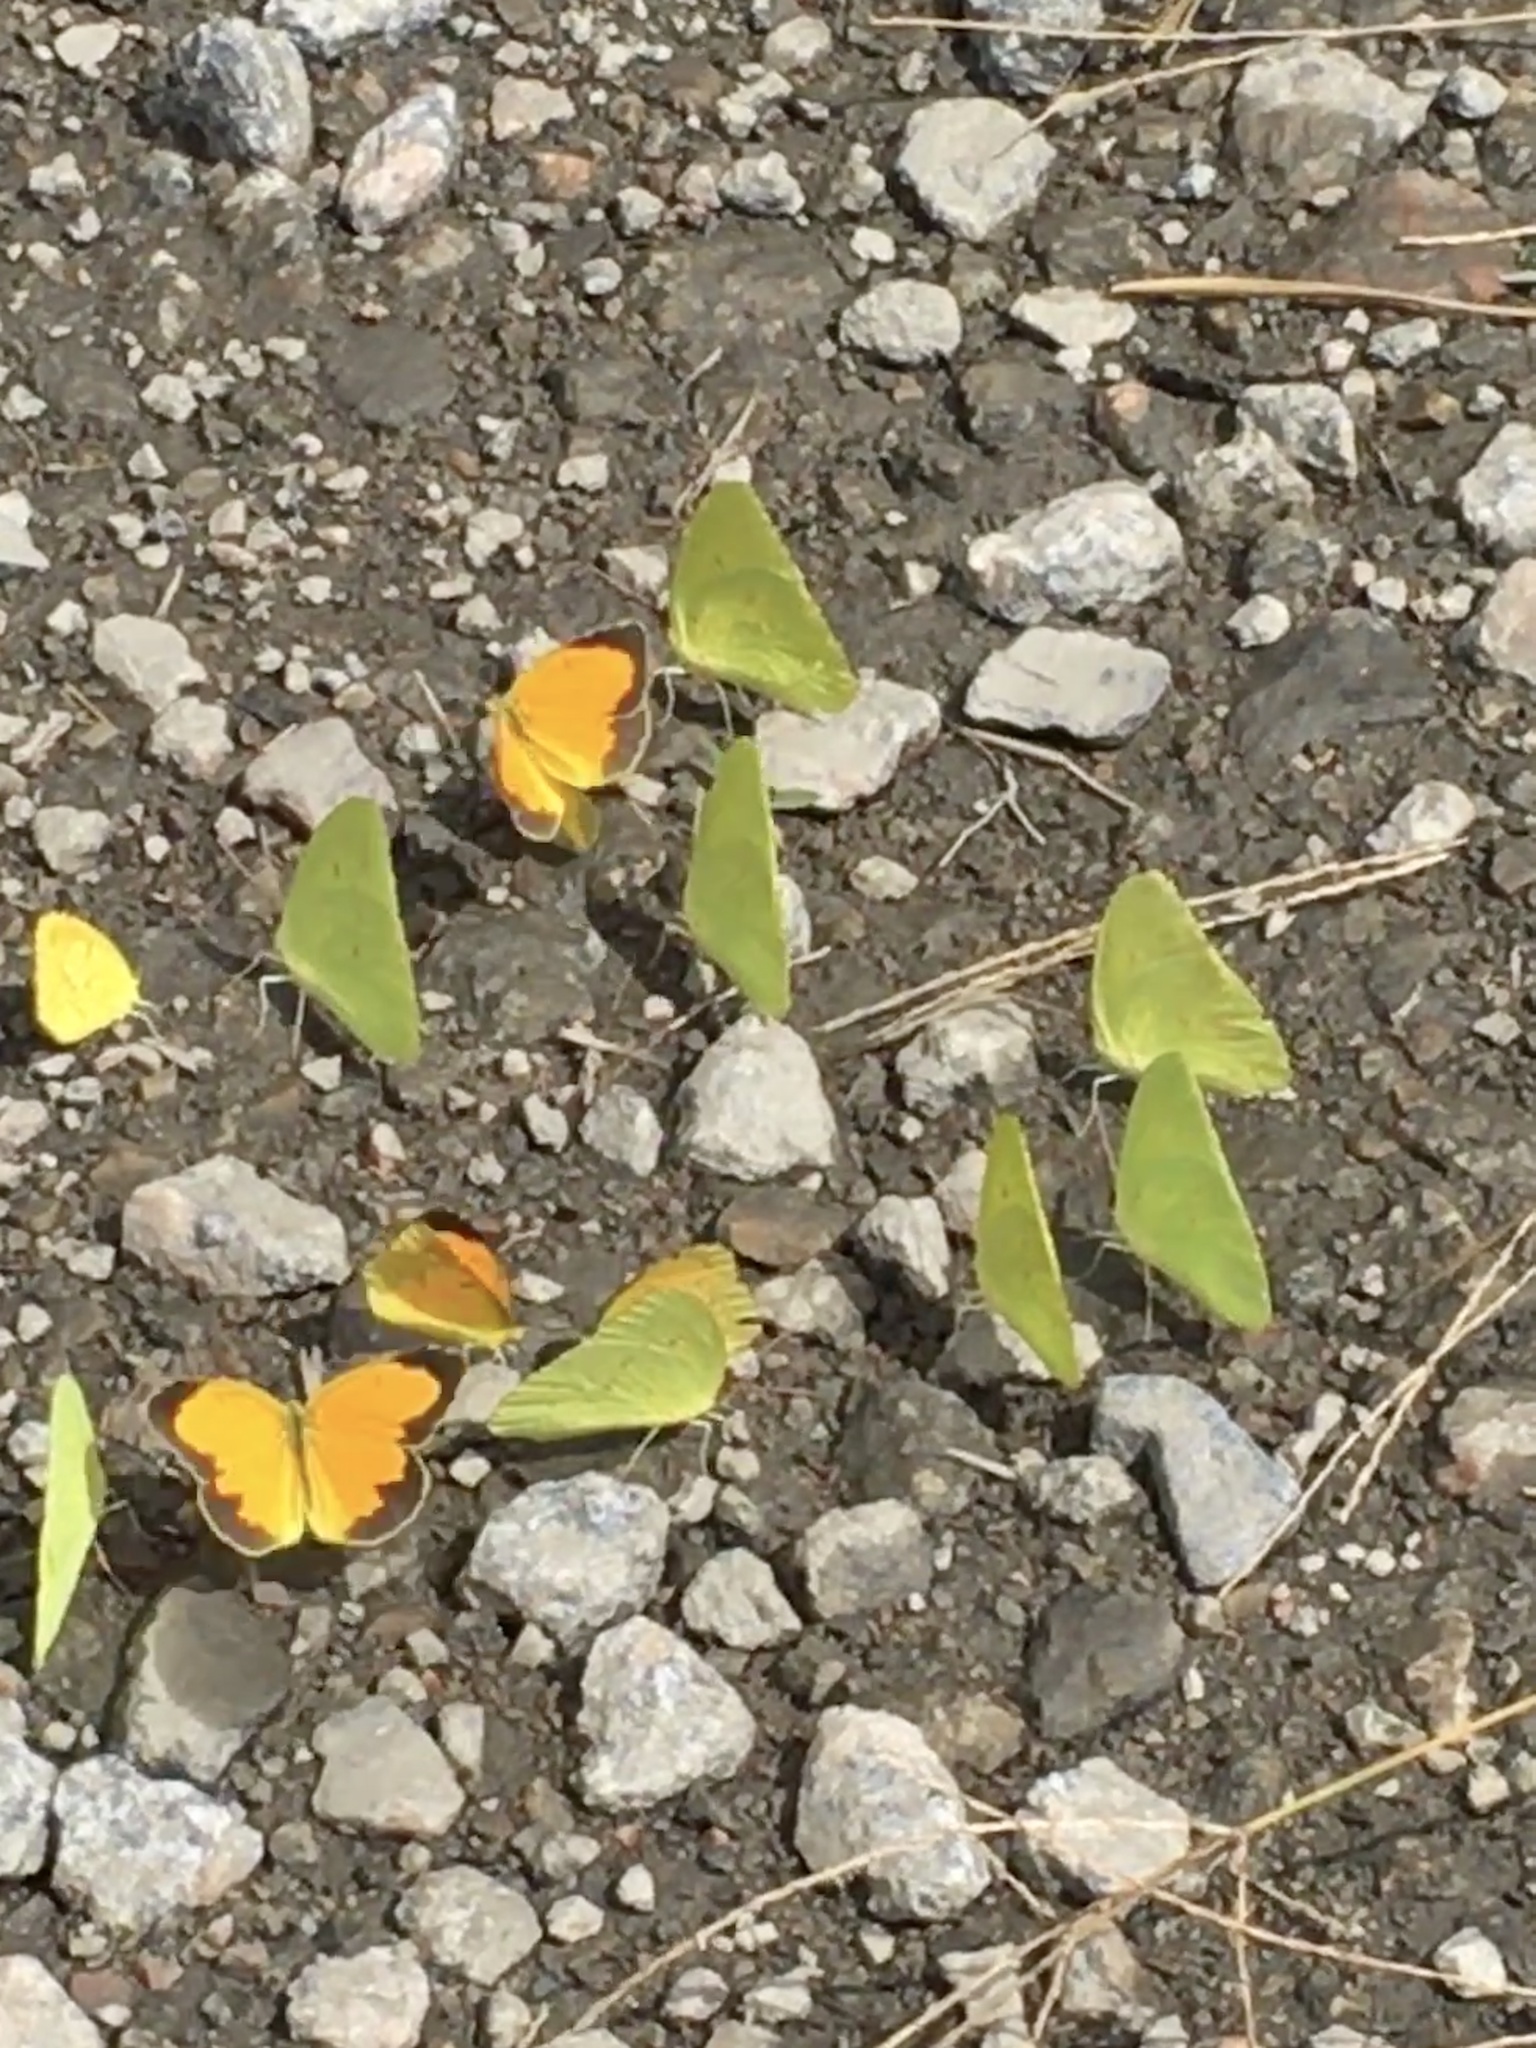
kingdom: Animalia
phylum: Arthropoda
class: Insecta
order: Lepidoptera
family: Pieridae
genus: Abaeis
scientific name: Abaeis nicippe
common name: Sleepy orange
